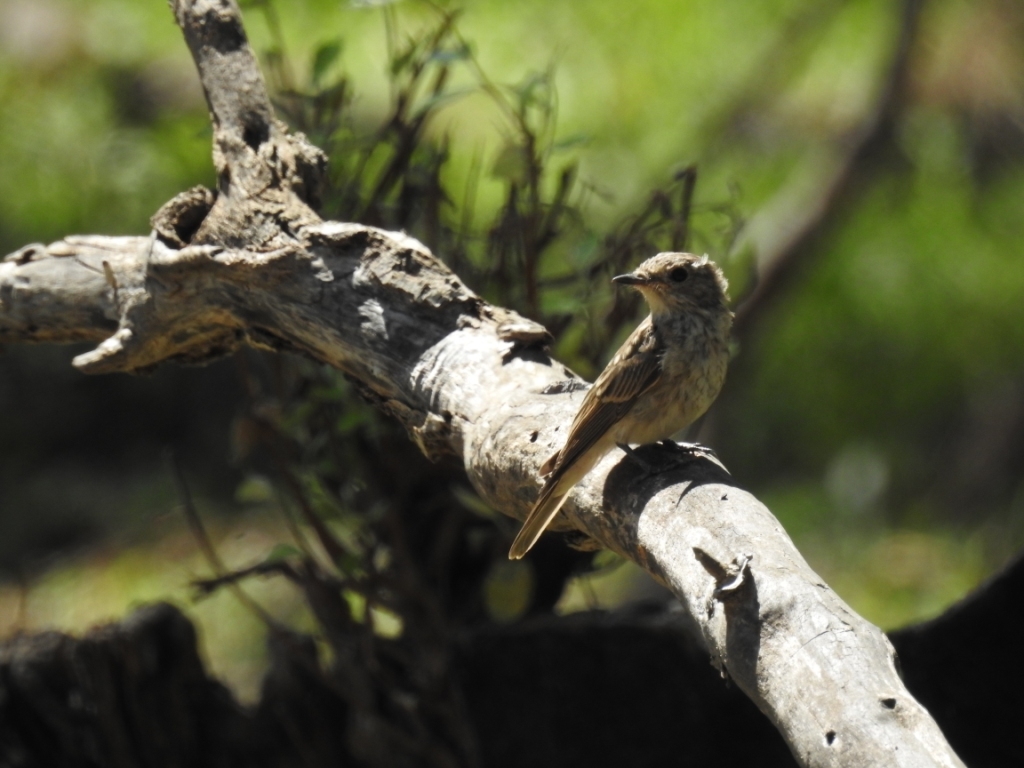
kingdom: Animalia
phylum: Chordata
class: Aves
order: Passeriformes
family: Muscicapidae
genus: Muscicapa
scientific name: Muscicapa striata
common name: Spotted flycatcher
